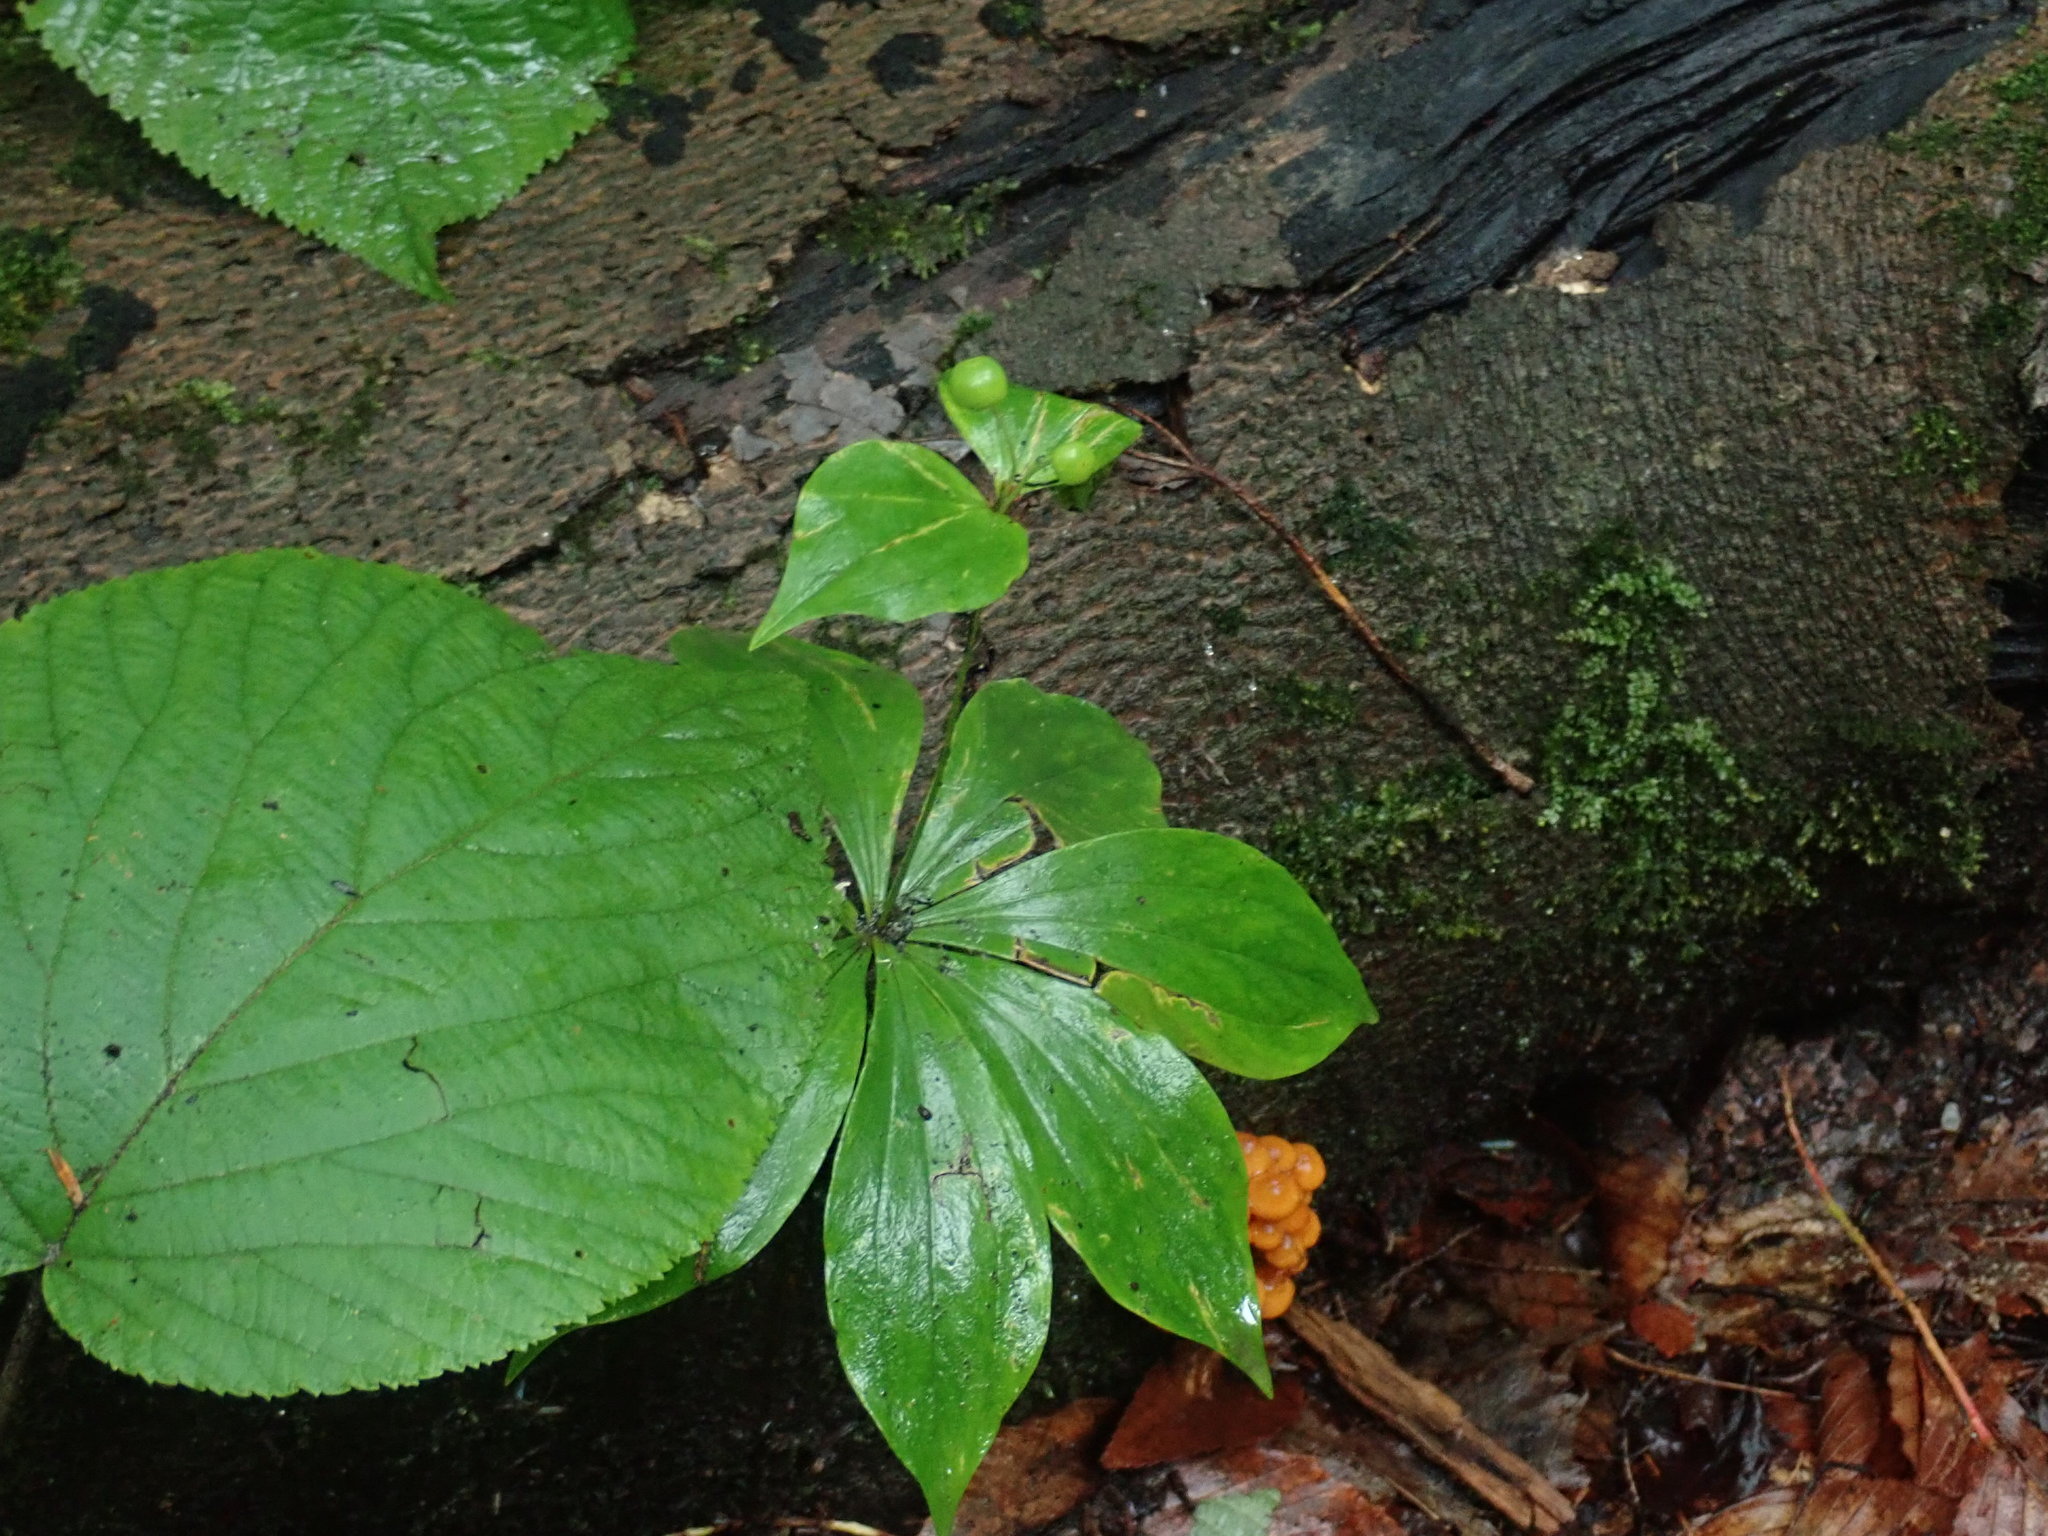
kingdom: Plantae
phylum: Tracheophyta
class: Liliopsida
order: Liliales
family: Liliaceae
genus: Medeola
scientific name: Medeola virginiana
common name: Indian cucumber-root
